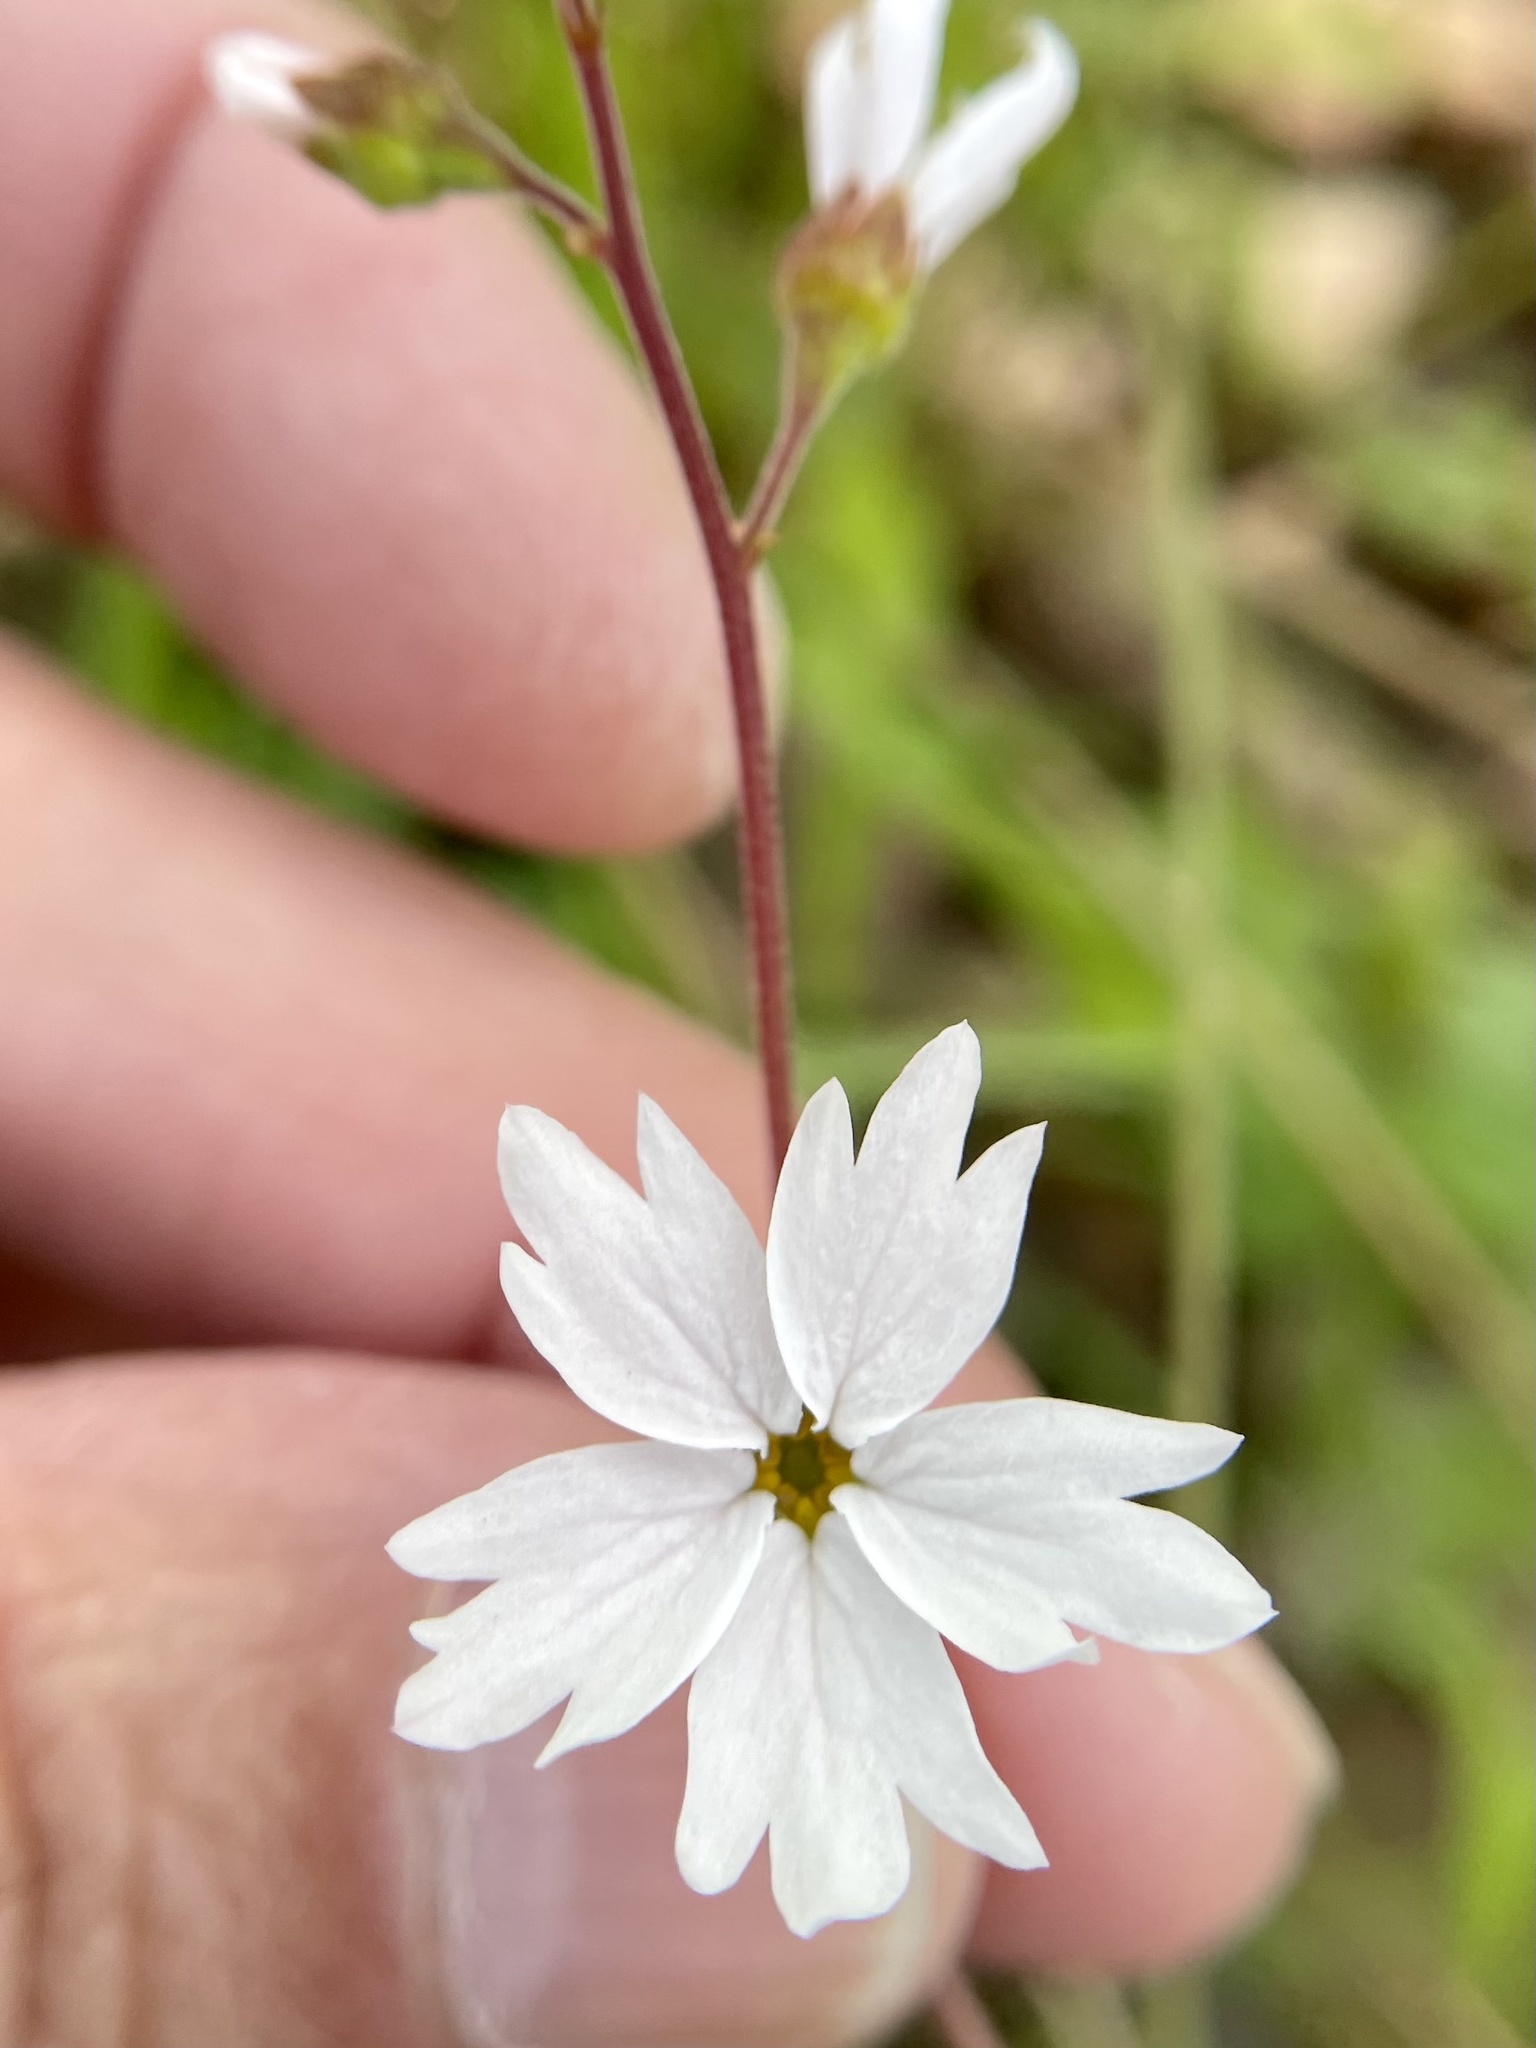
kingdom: Plantae
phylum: Tracheophyta
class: Magnoliopsida
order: Saxifragales
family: Saxifragaceae
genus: Lithophragma
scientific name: Lithophragma affine
